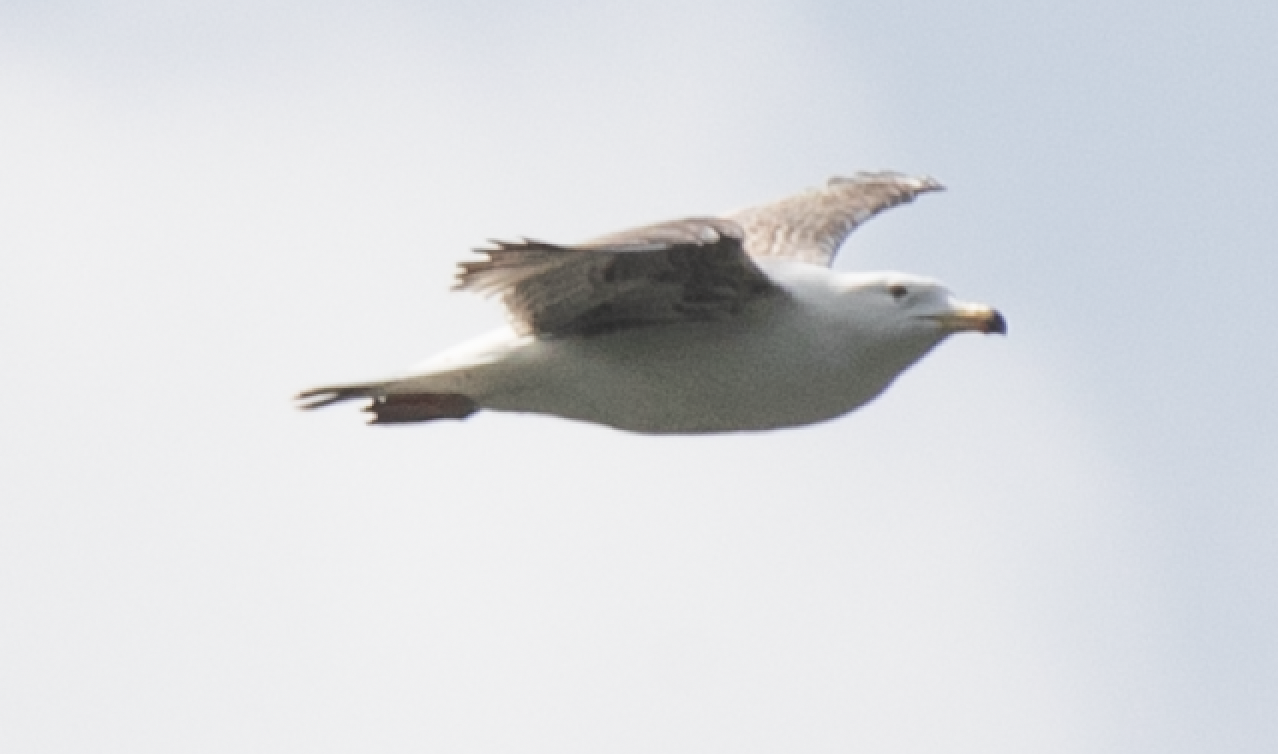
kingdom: Animalia
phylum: Chordata
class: Aves
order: Charadriiformes
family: Laridae
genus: Larus
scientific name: Larus michahellis
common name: Yellow-legged gull
